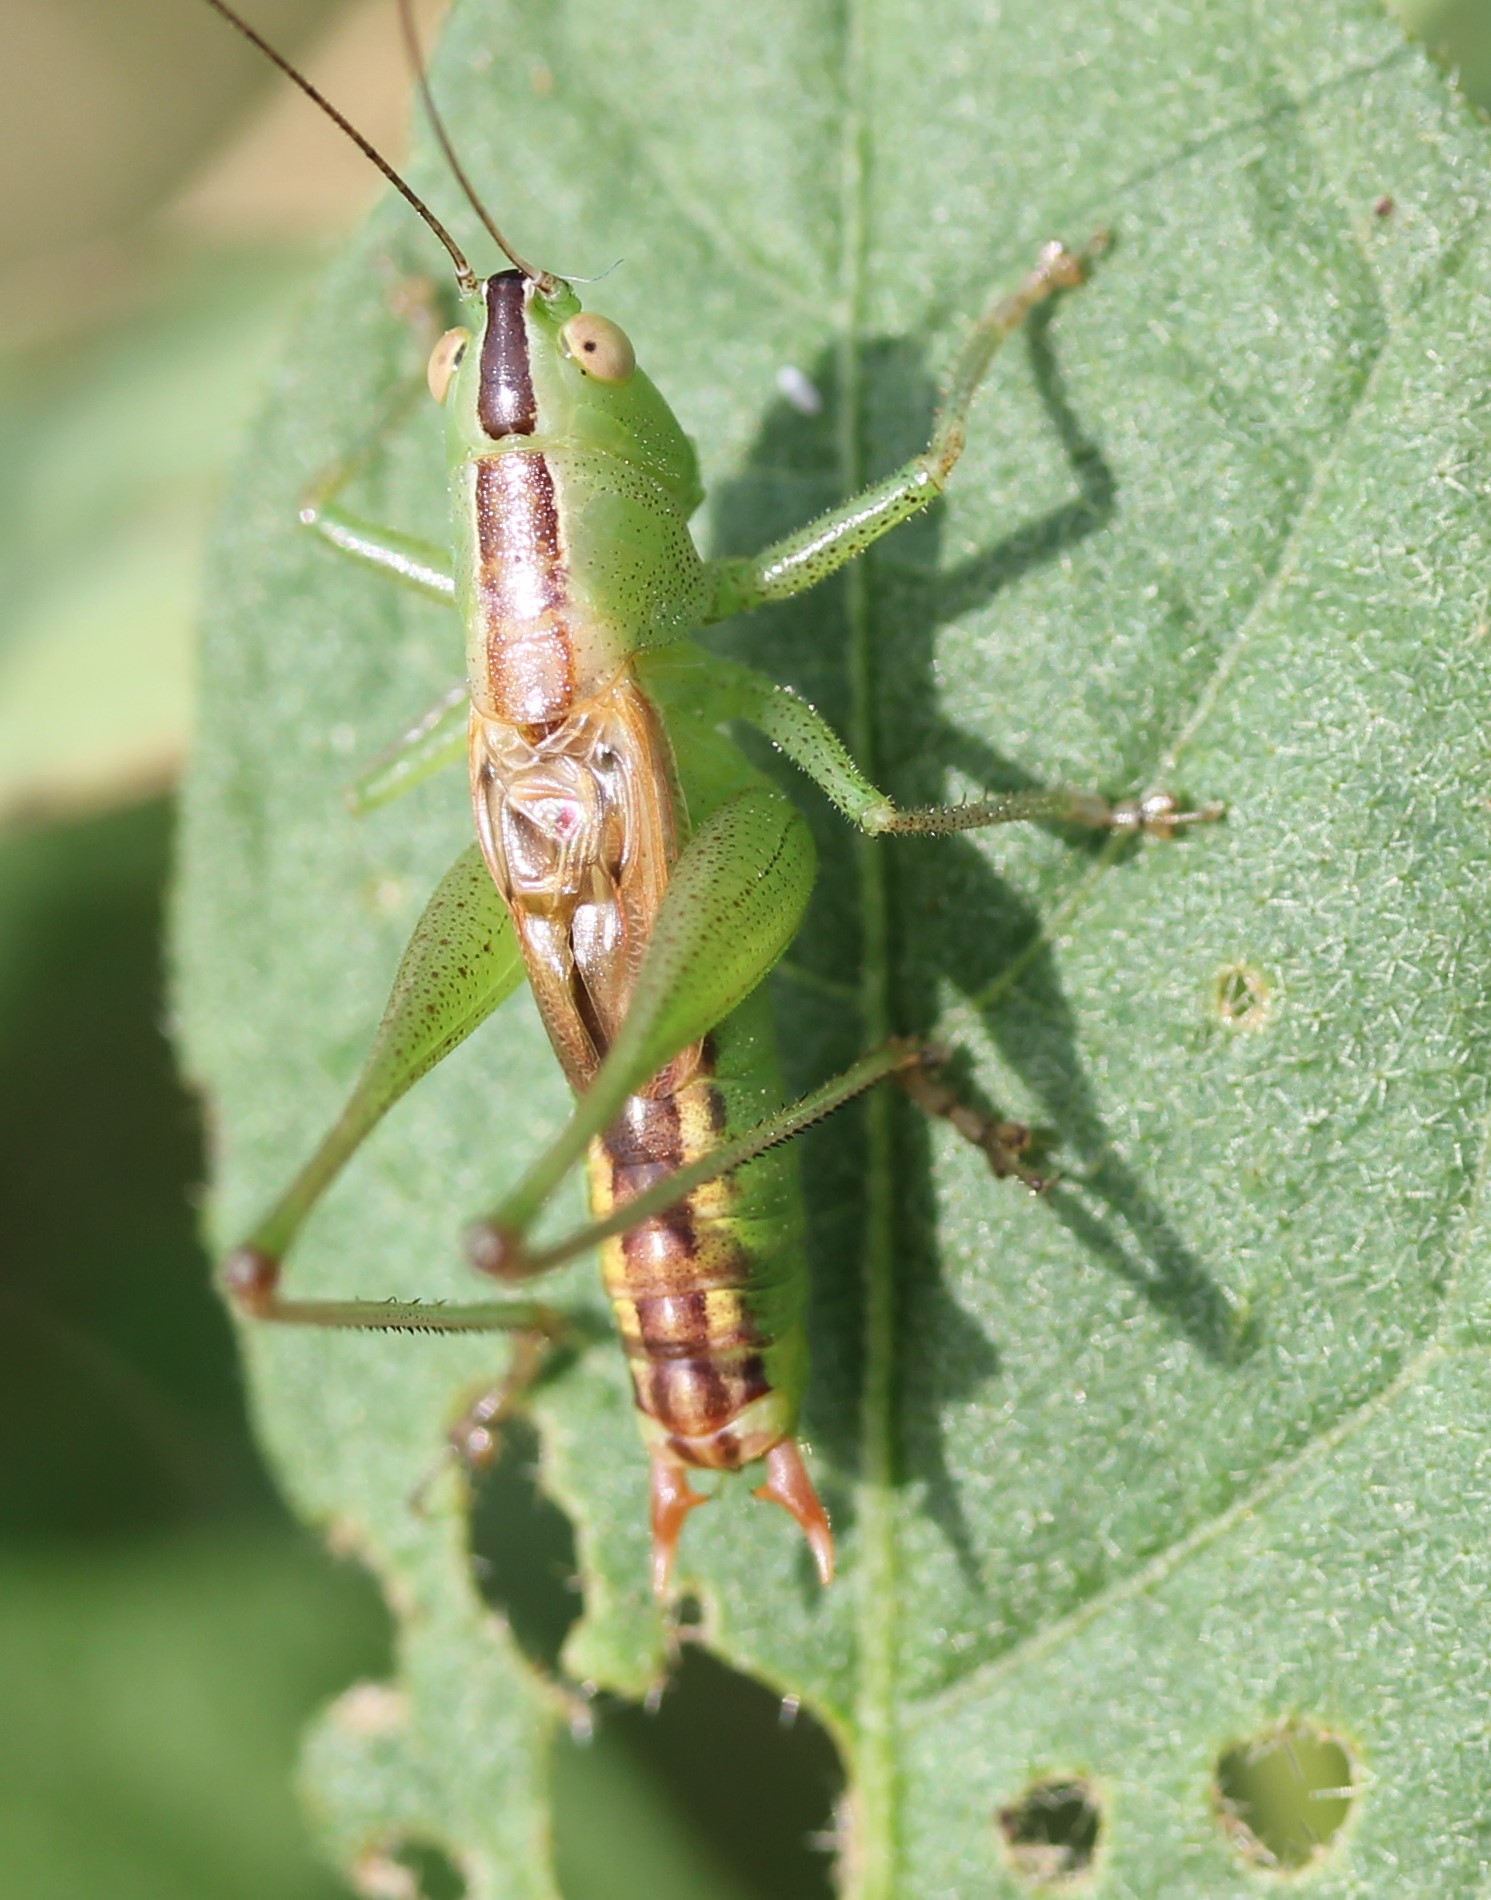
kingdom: Animalia
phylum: Arthropoda
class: Insecta
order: Orthoptera
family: Tettigoniidae
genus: Conocephalus
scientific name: Conocephalus strictus
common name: Straight-lanced katydid
